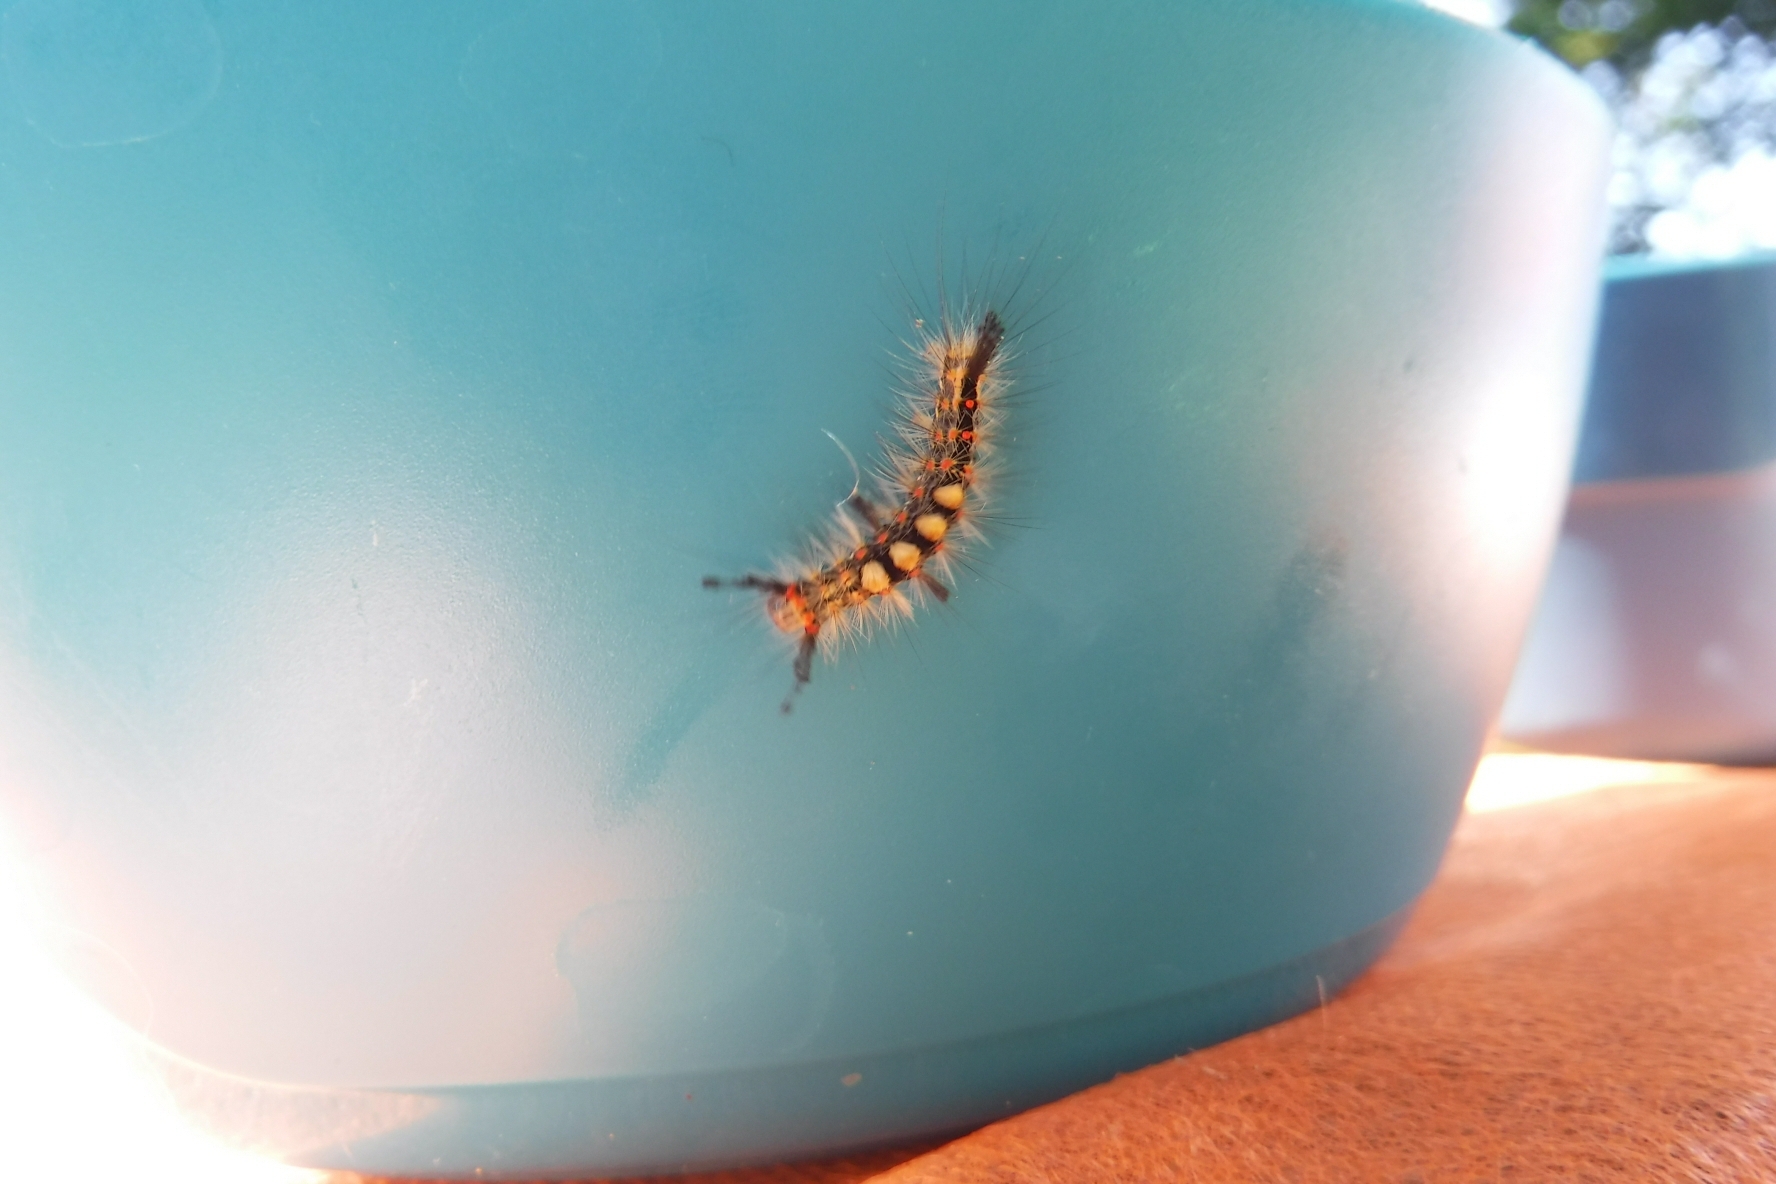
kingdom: Animalia
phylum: Arthropoda
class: Insecta
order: Lepidoptera
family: Erebidae
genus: Orgyia
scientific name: Orgyia antiqua
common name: Vapourer
